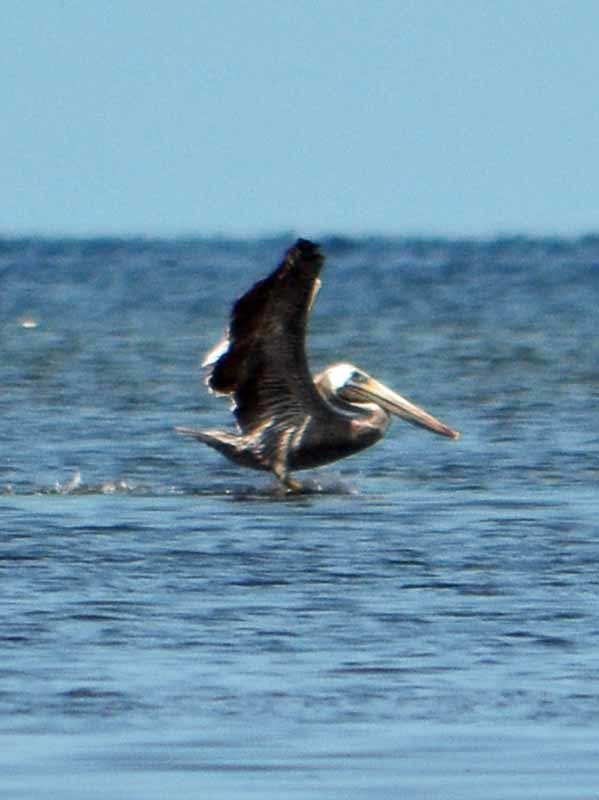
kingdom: Animalia
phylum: Chordata
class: Aves
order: Pelecaniformes
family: Pelecanidae
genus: Pelecanus
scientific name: Pelecanus occidentalis
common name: Brown pelican
